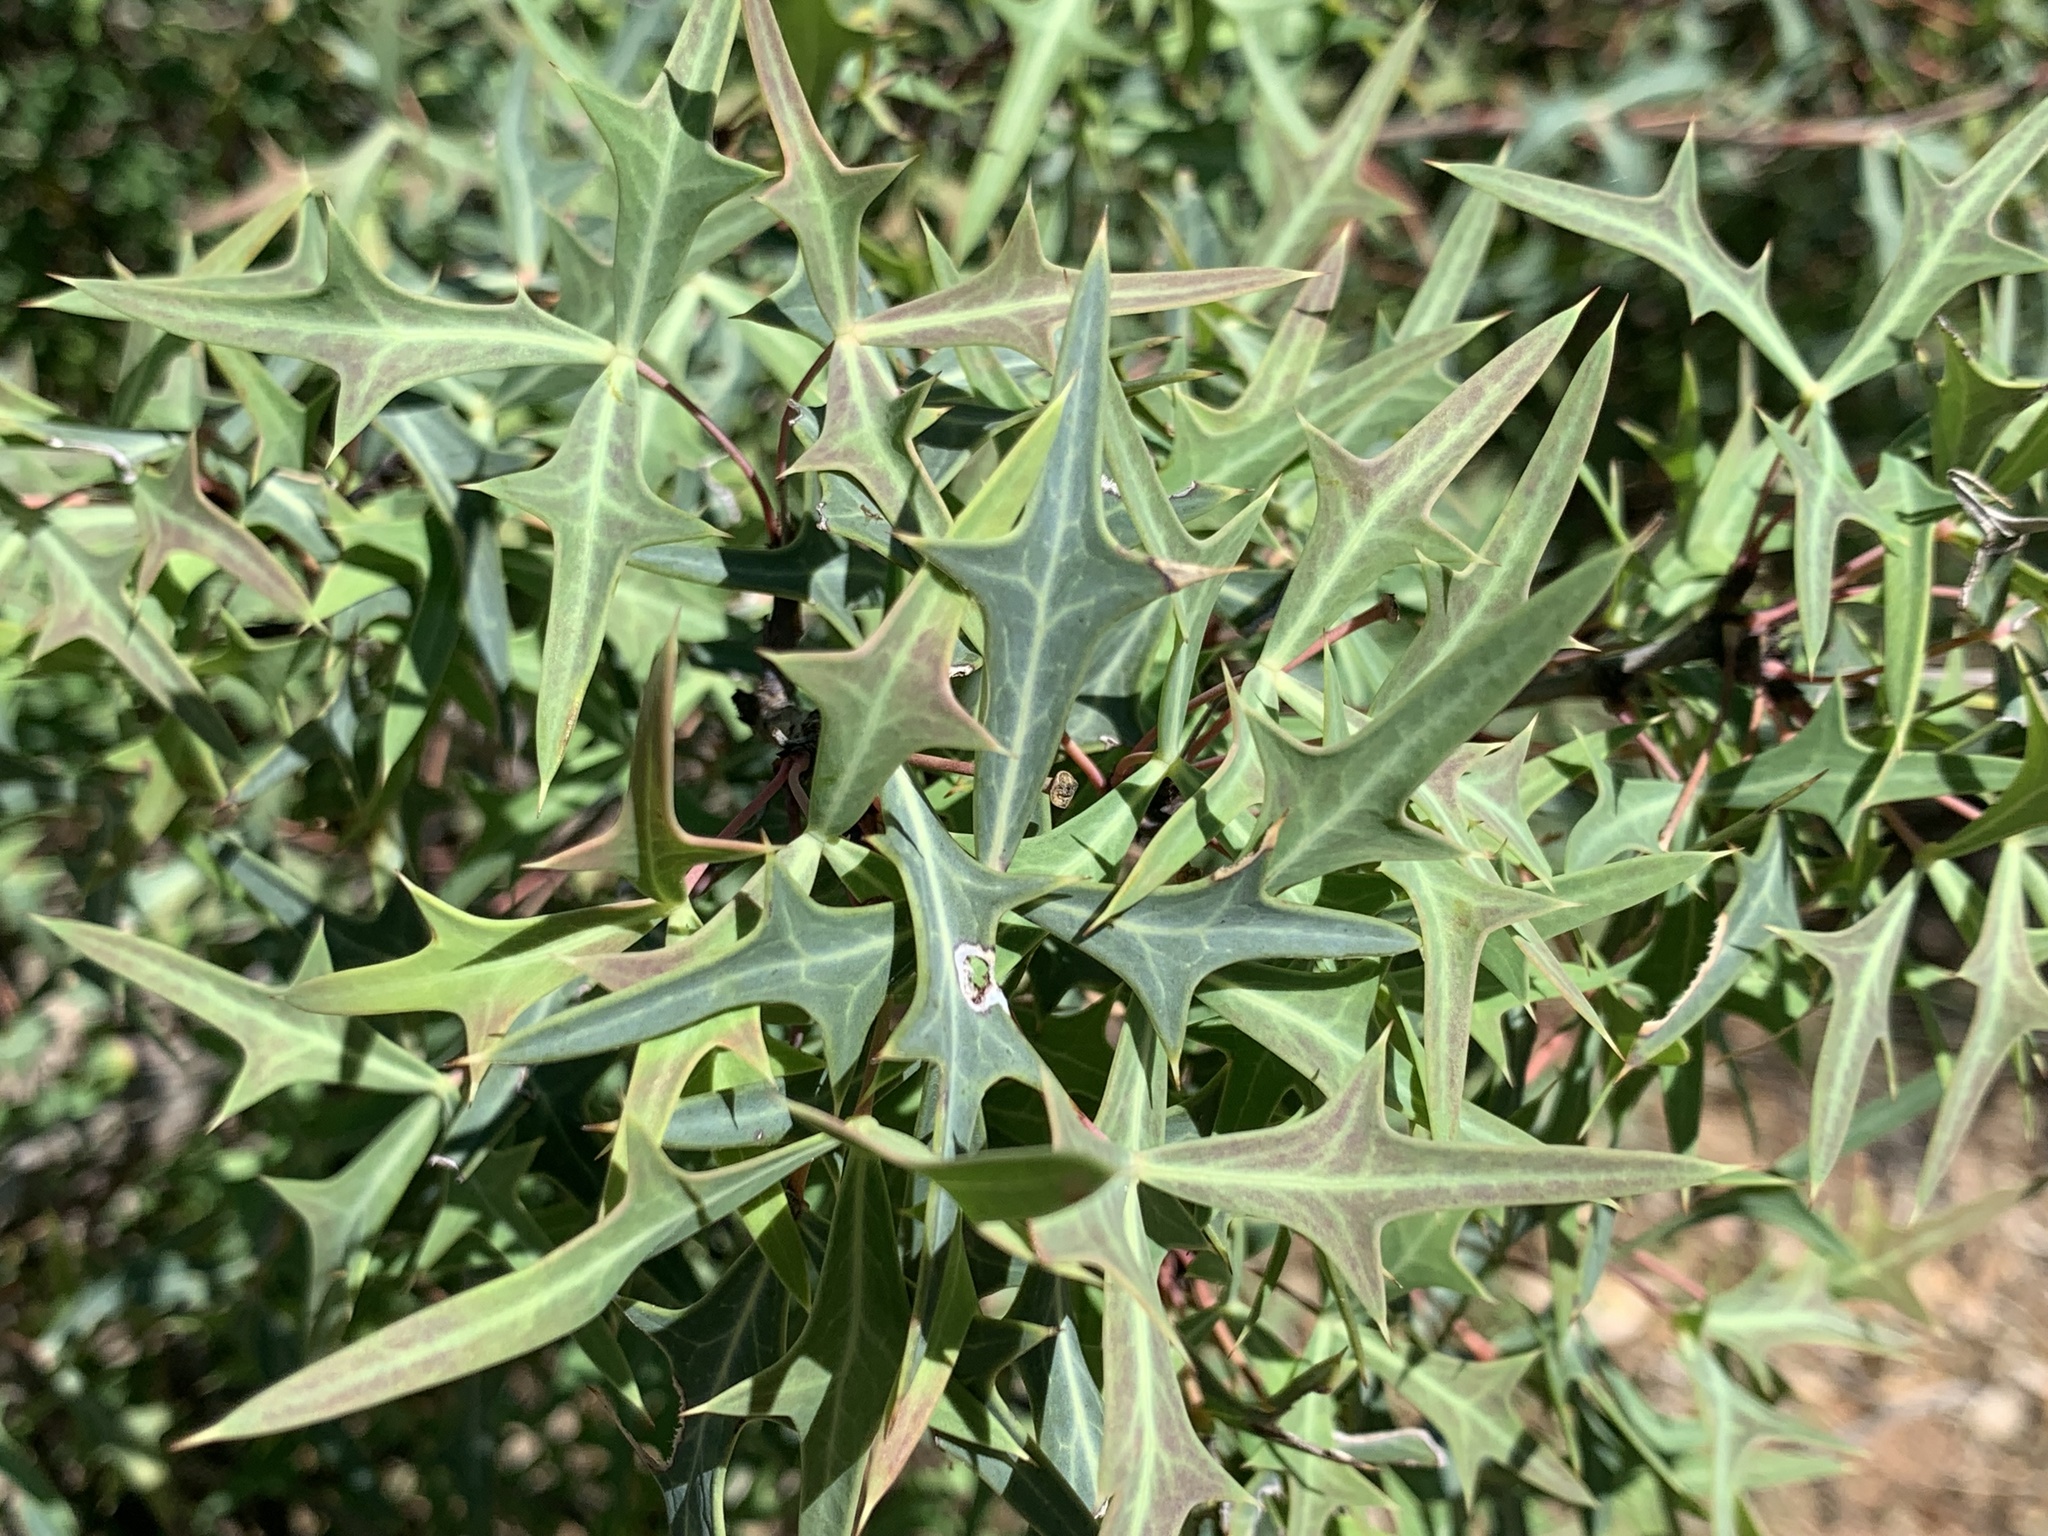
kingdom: Plantae
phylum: Tracheophyta
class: Magnoliopsida
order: Ranunculales
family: Berberidaceae
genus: Alloberberis
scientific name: Alloberberis trifoliolata
